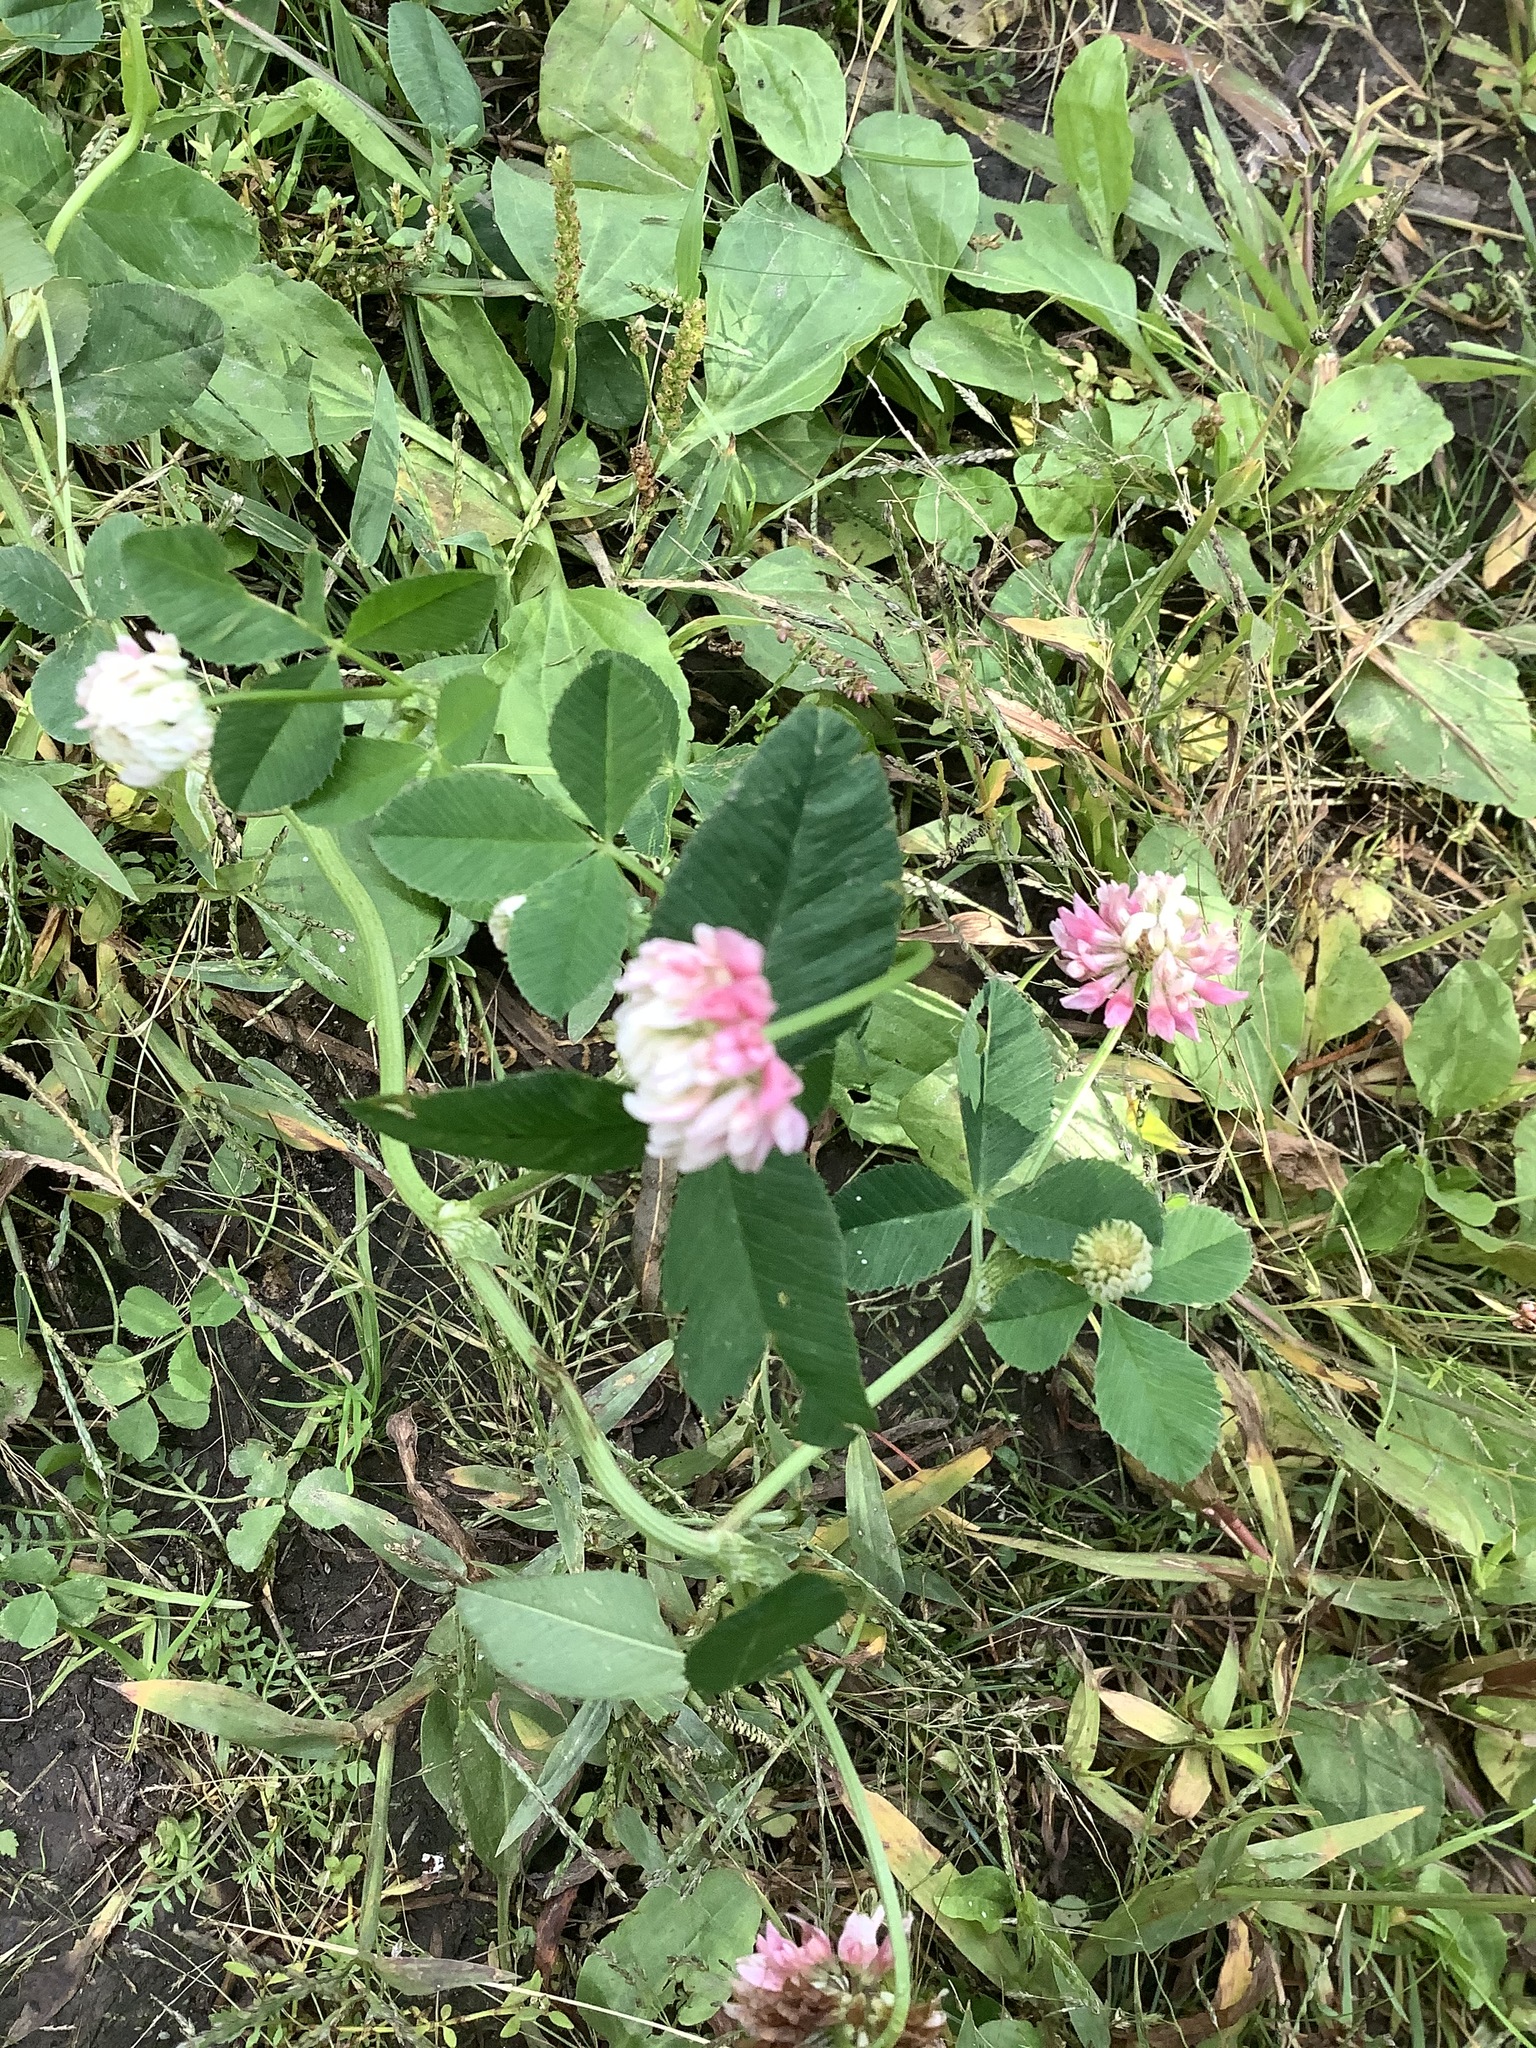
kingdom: Plantae
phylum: Tracheophyta
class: Magnoliopsida
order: Fabales
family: Fabaceae
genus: Trifolium
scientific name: Trifolium hybridum
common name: Alsike clover
